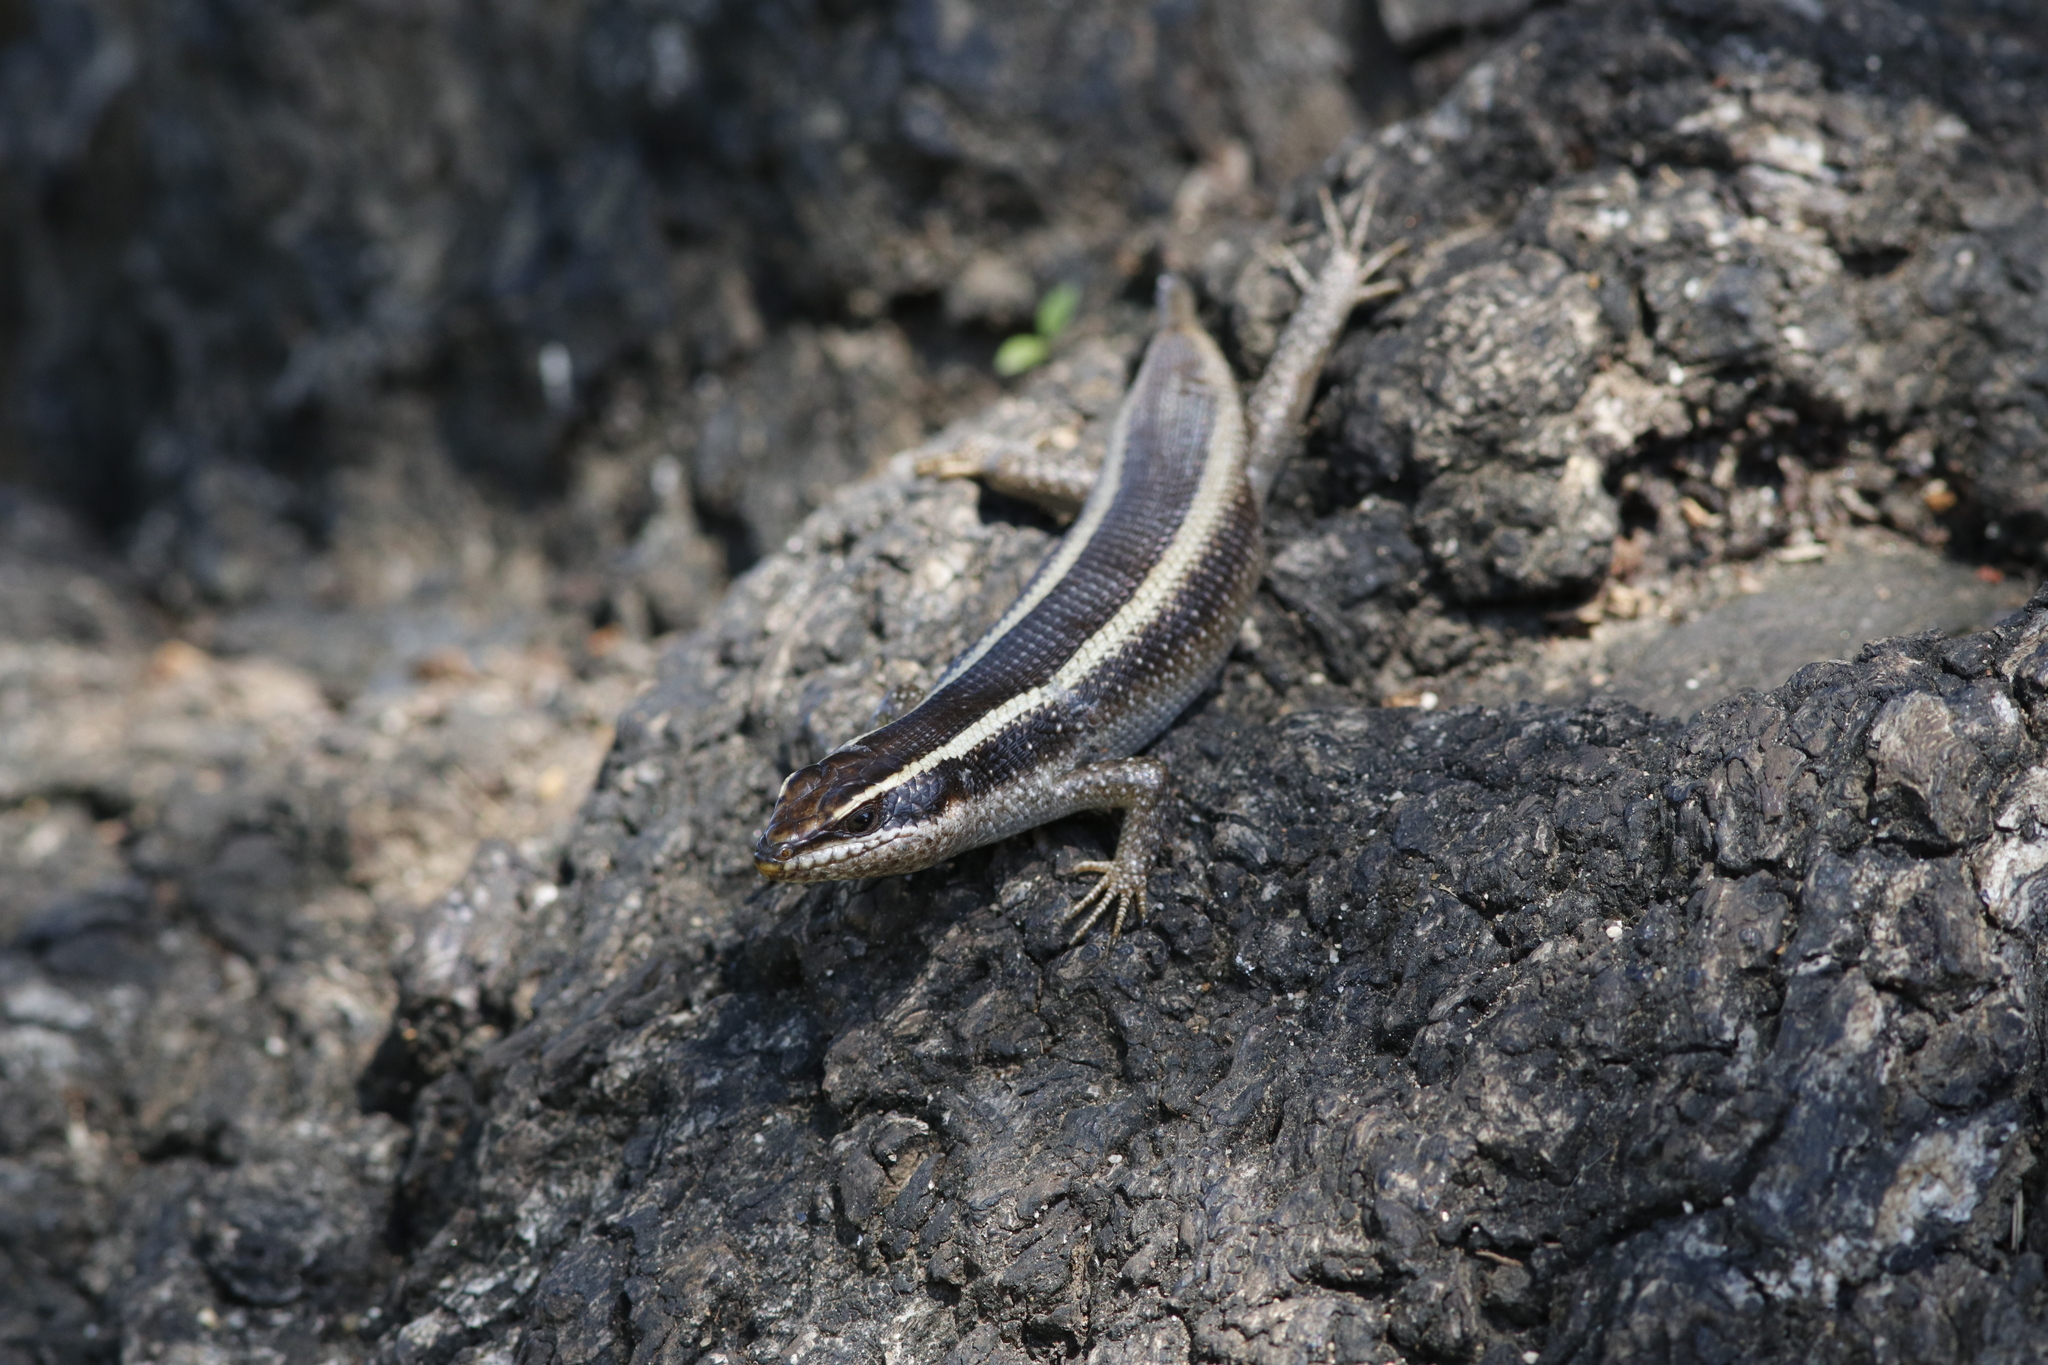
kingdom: Animalia
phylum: Chordata
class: Squamata
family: Scincidae
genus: Trachylepis
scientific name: Trachylepis striata
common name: African striped mabuya
